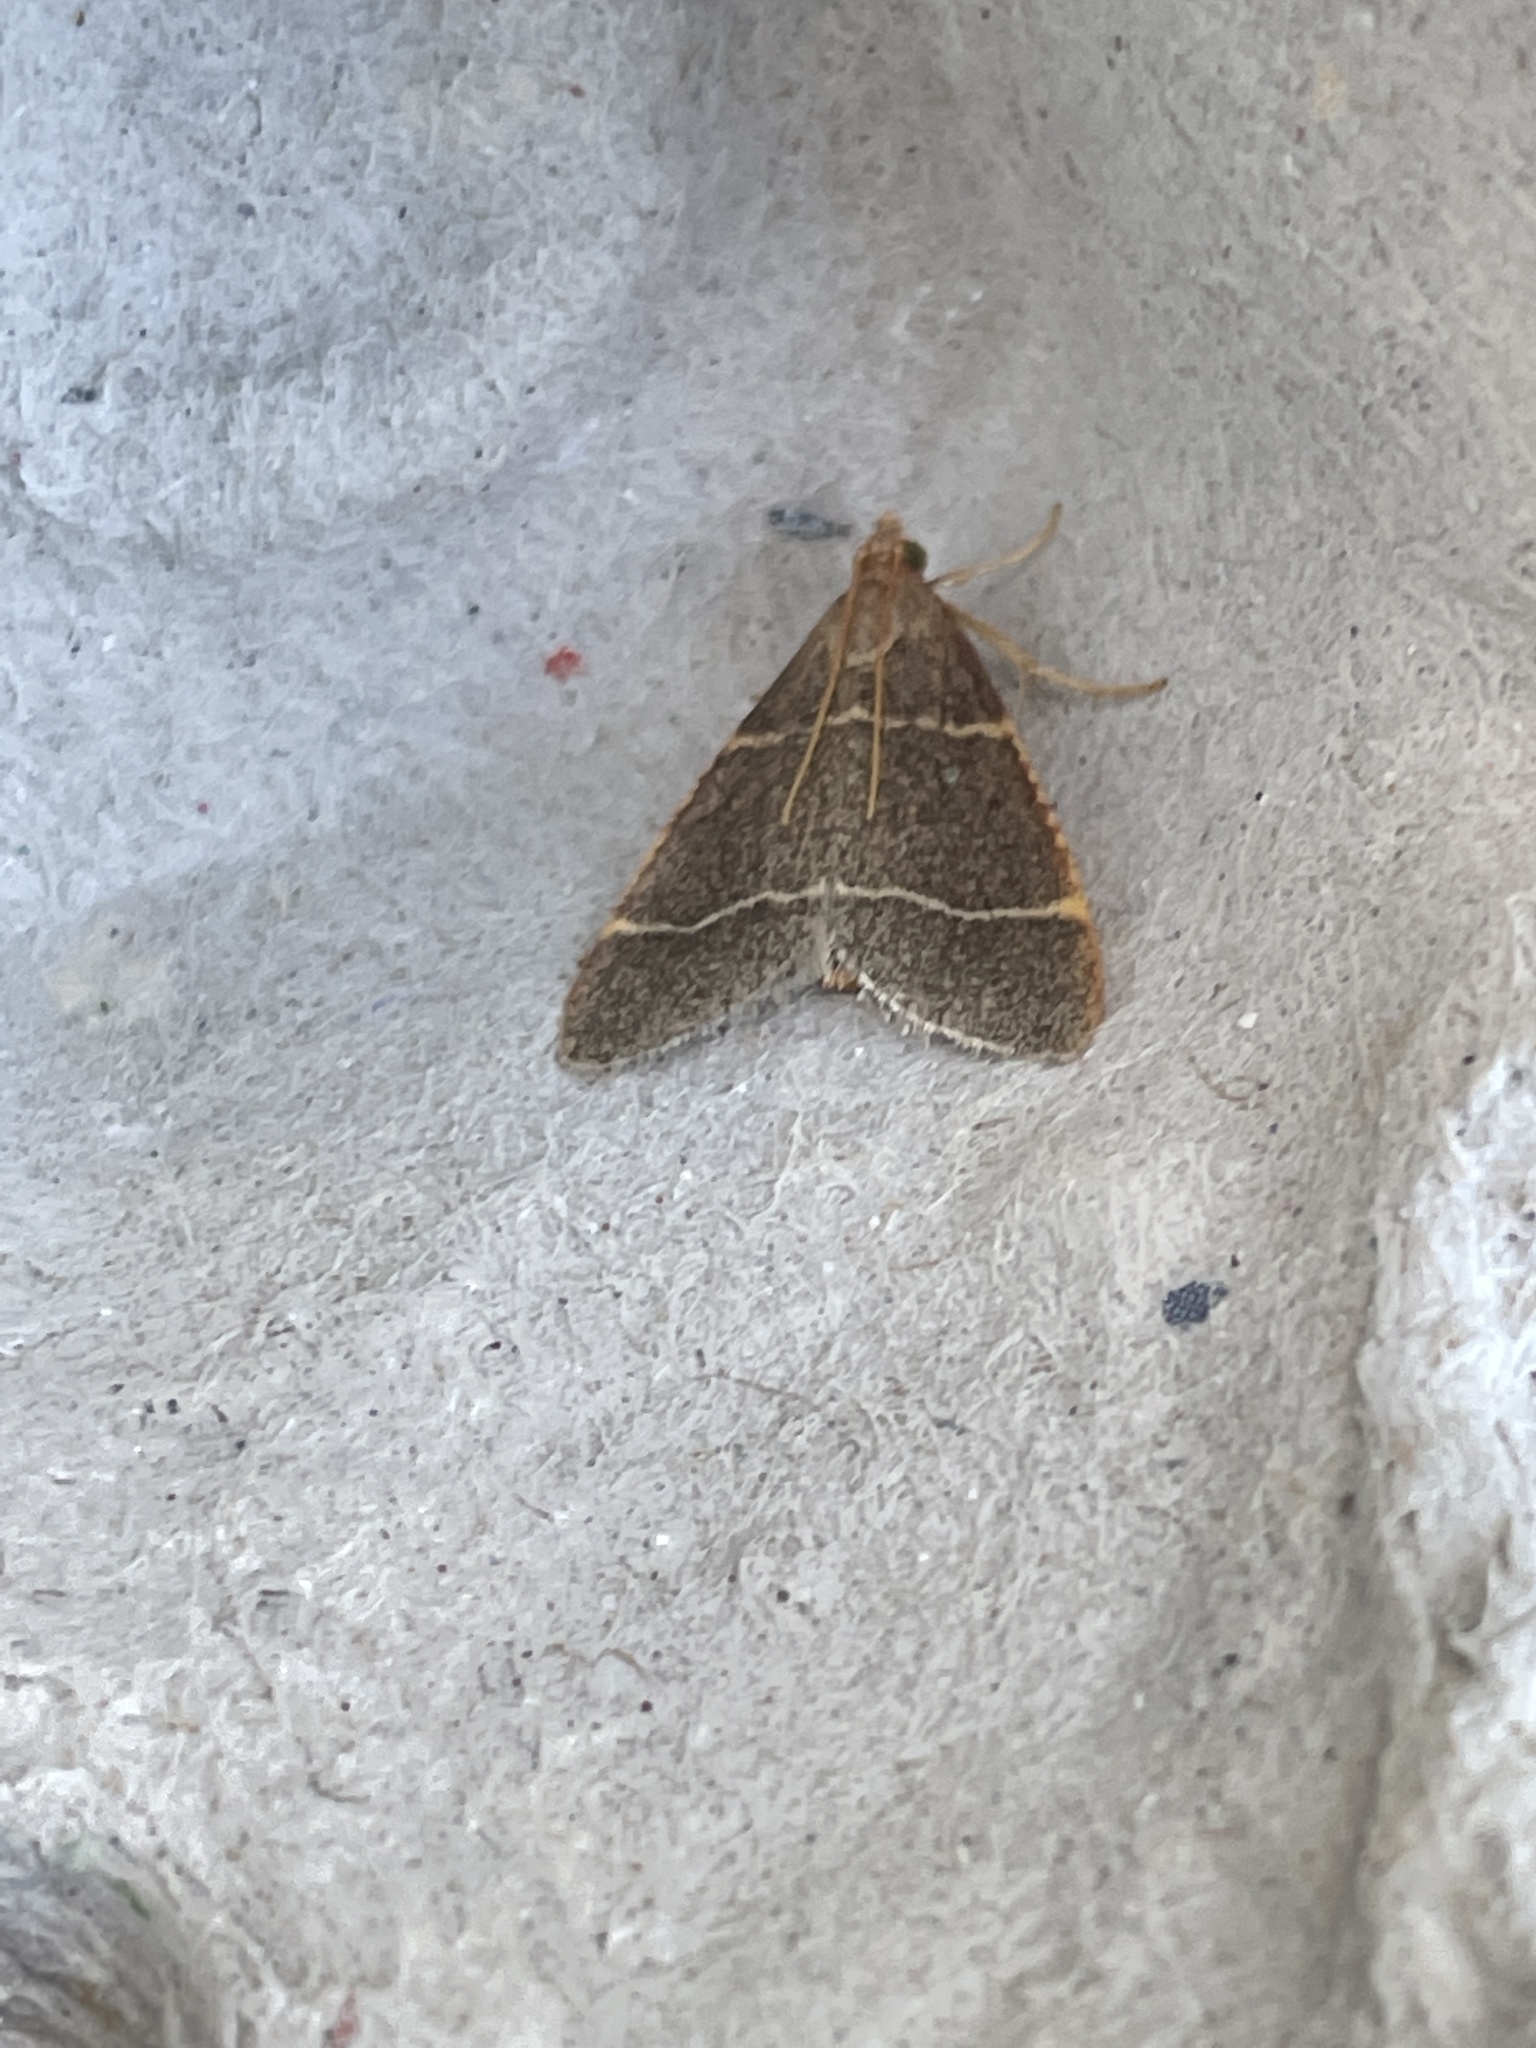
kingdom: Animalia
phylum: Arthropoda
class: Insecta
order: Lepidoptera
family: Pyralidae
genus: Hypsopygia
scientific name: Hypsopygia glaucinalis
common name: Double-striped tabby
